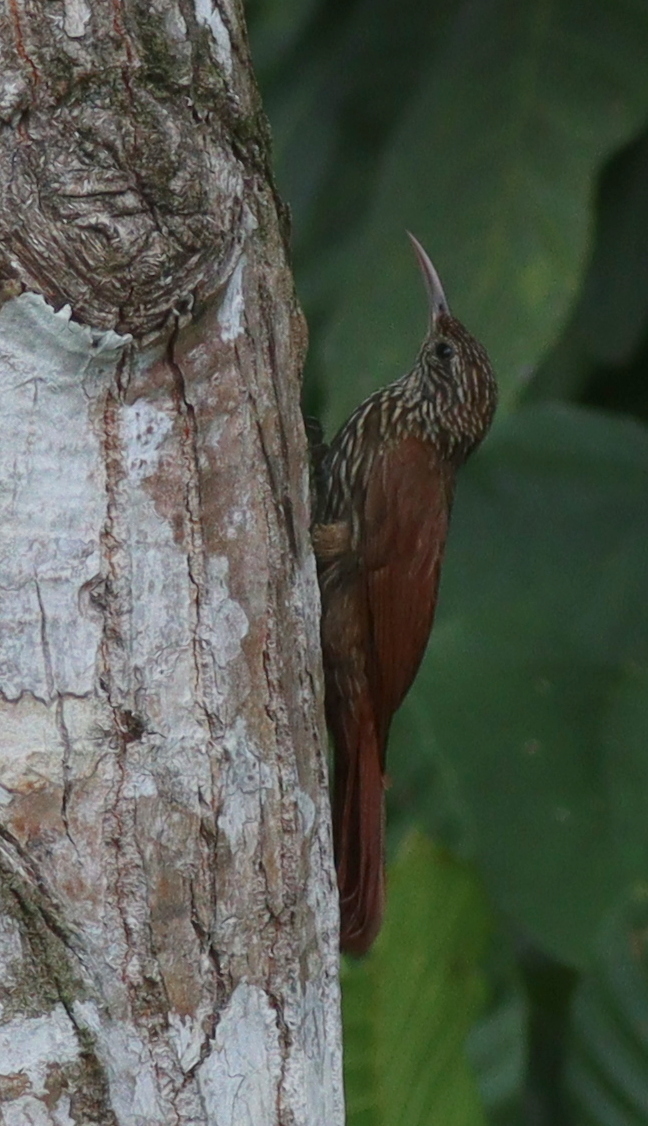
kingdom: Animalia
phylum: Chordata
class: Aves
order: Passeriformes
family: Furnariidae
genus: Lepidocolaptes
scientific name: Lepidocolaptes souleyetii
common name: Streak-headed woodcreeper
